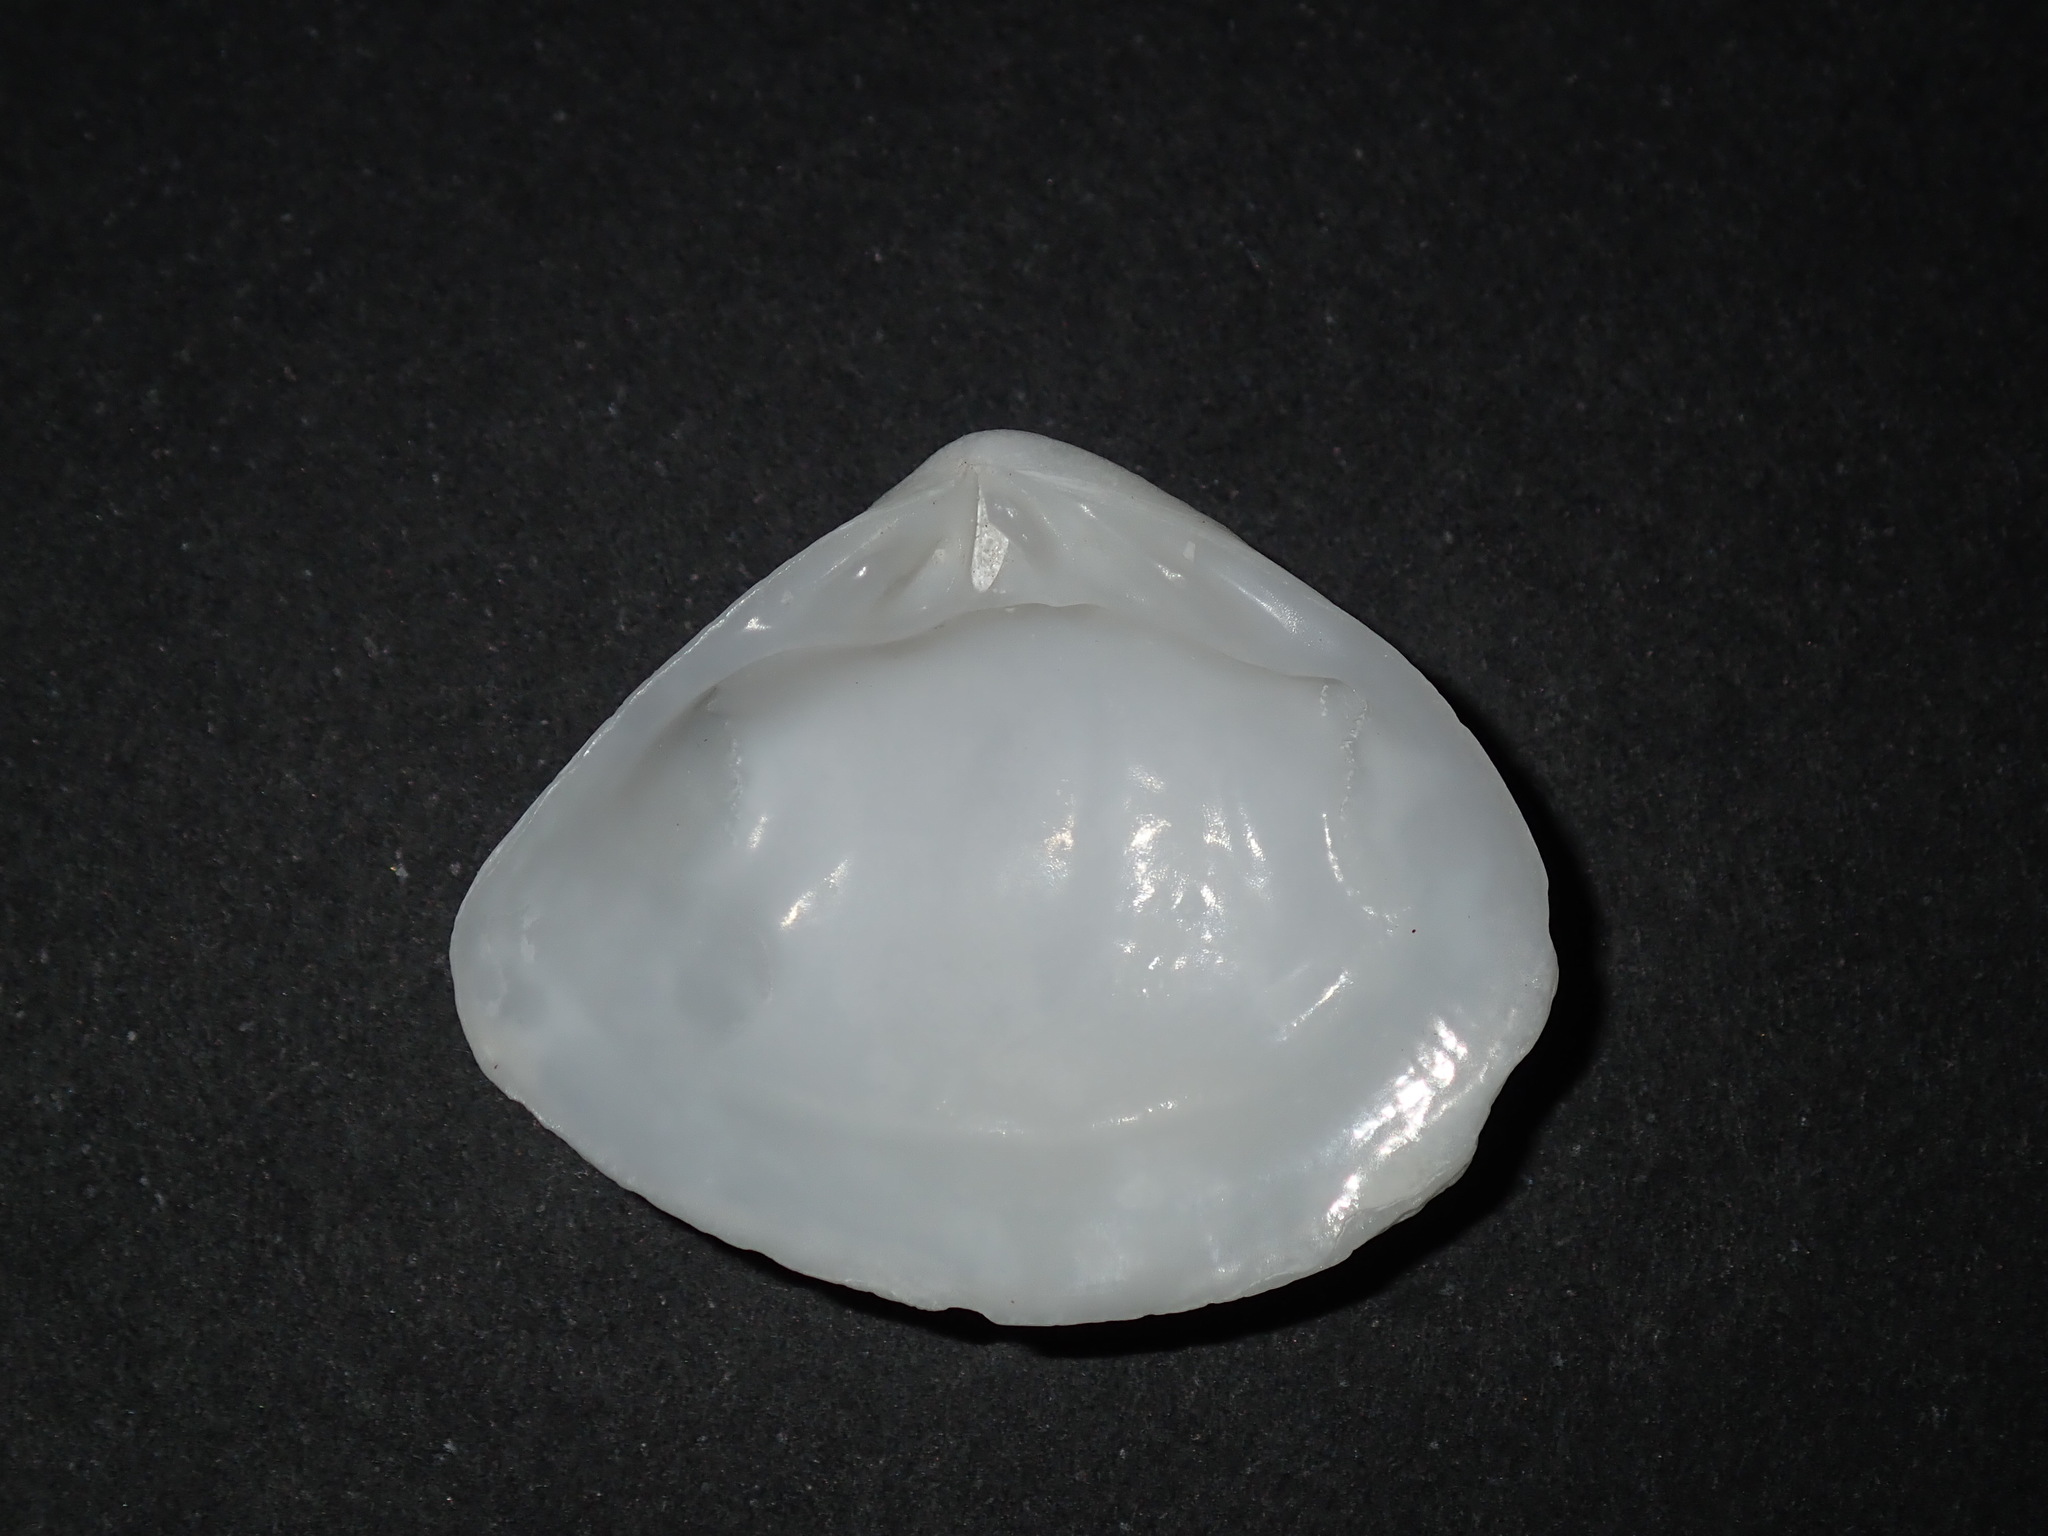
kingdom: Animalia
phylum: Mollusca
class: Bivalvia
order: Venerida
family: Mesodesmatidae
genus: Atactodea
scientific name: Atactodea striata
